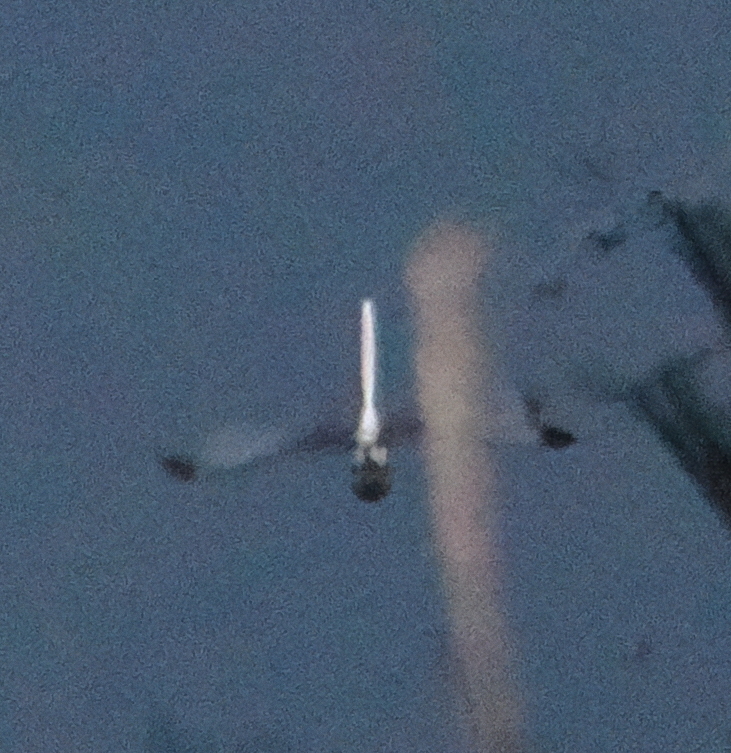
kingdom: Animalia
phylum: Arthropoda
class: Insecta
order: Odonata
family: Libellulidae
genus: Zyxomma
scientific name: Zyxomma obtusum
